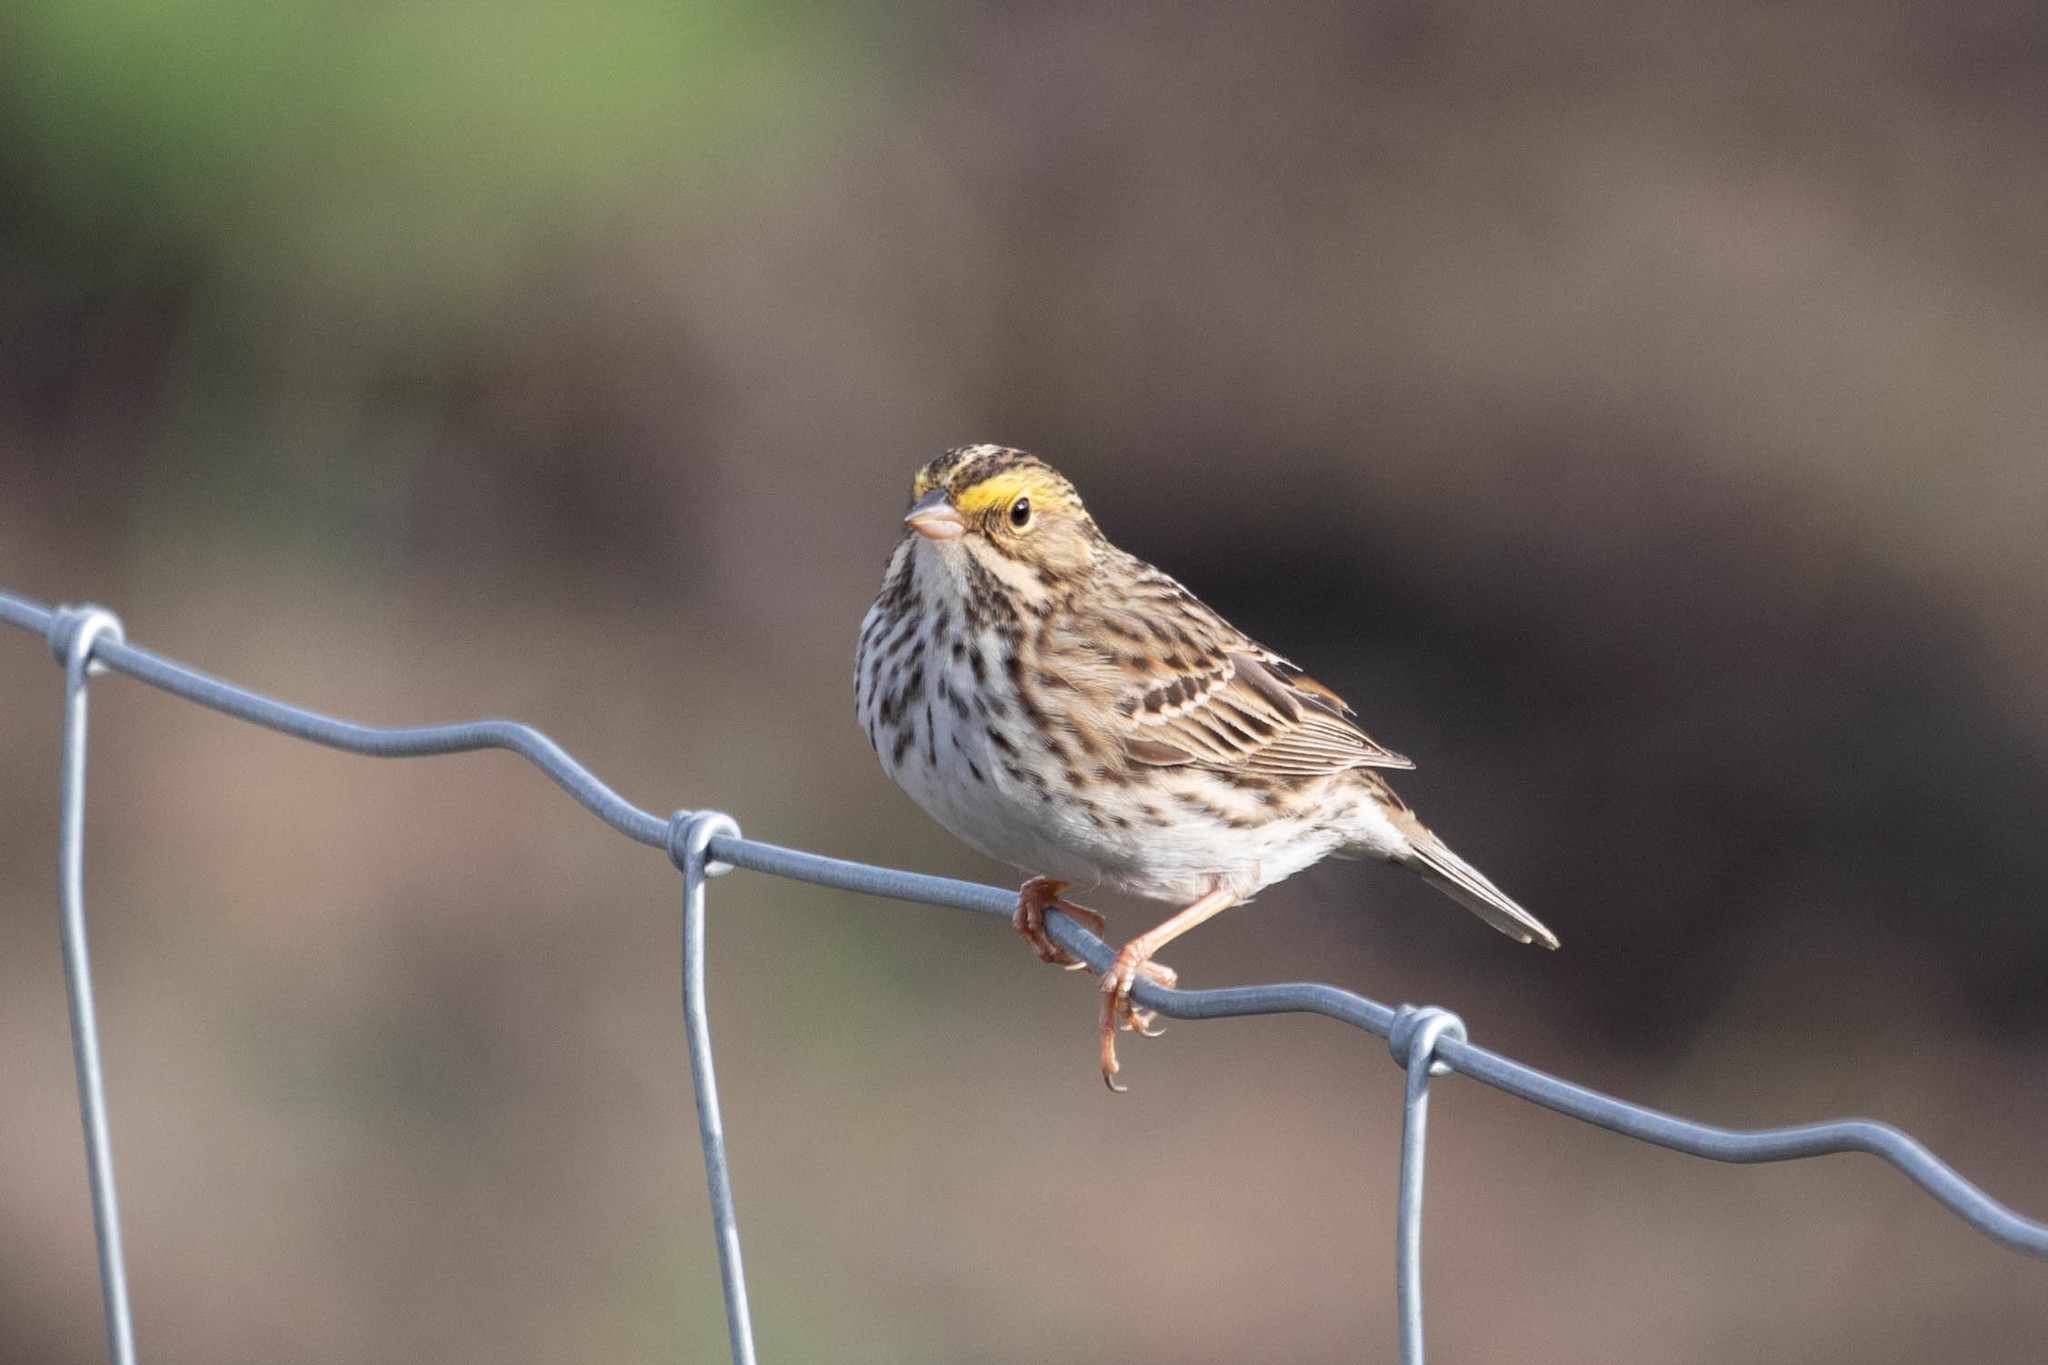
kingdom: Animalia
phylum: Chordata
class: Aves
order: Passeriformes
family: Passerellidae
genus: Passerculus
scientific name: Passerculus sandwichensis
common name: Savannah sparrow
